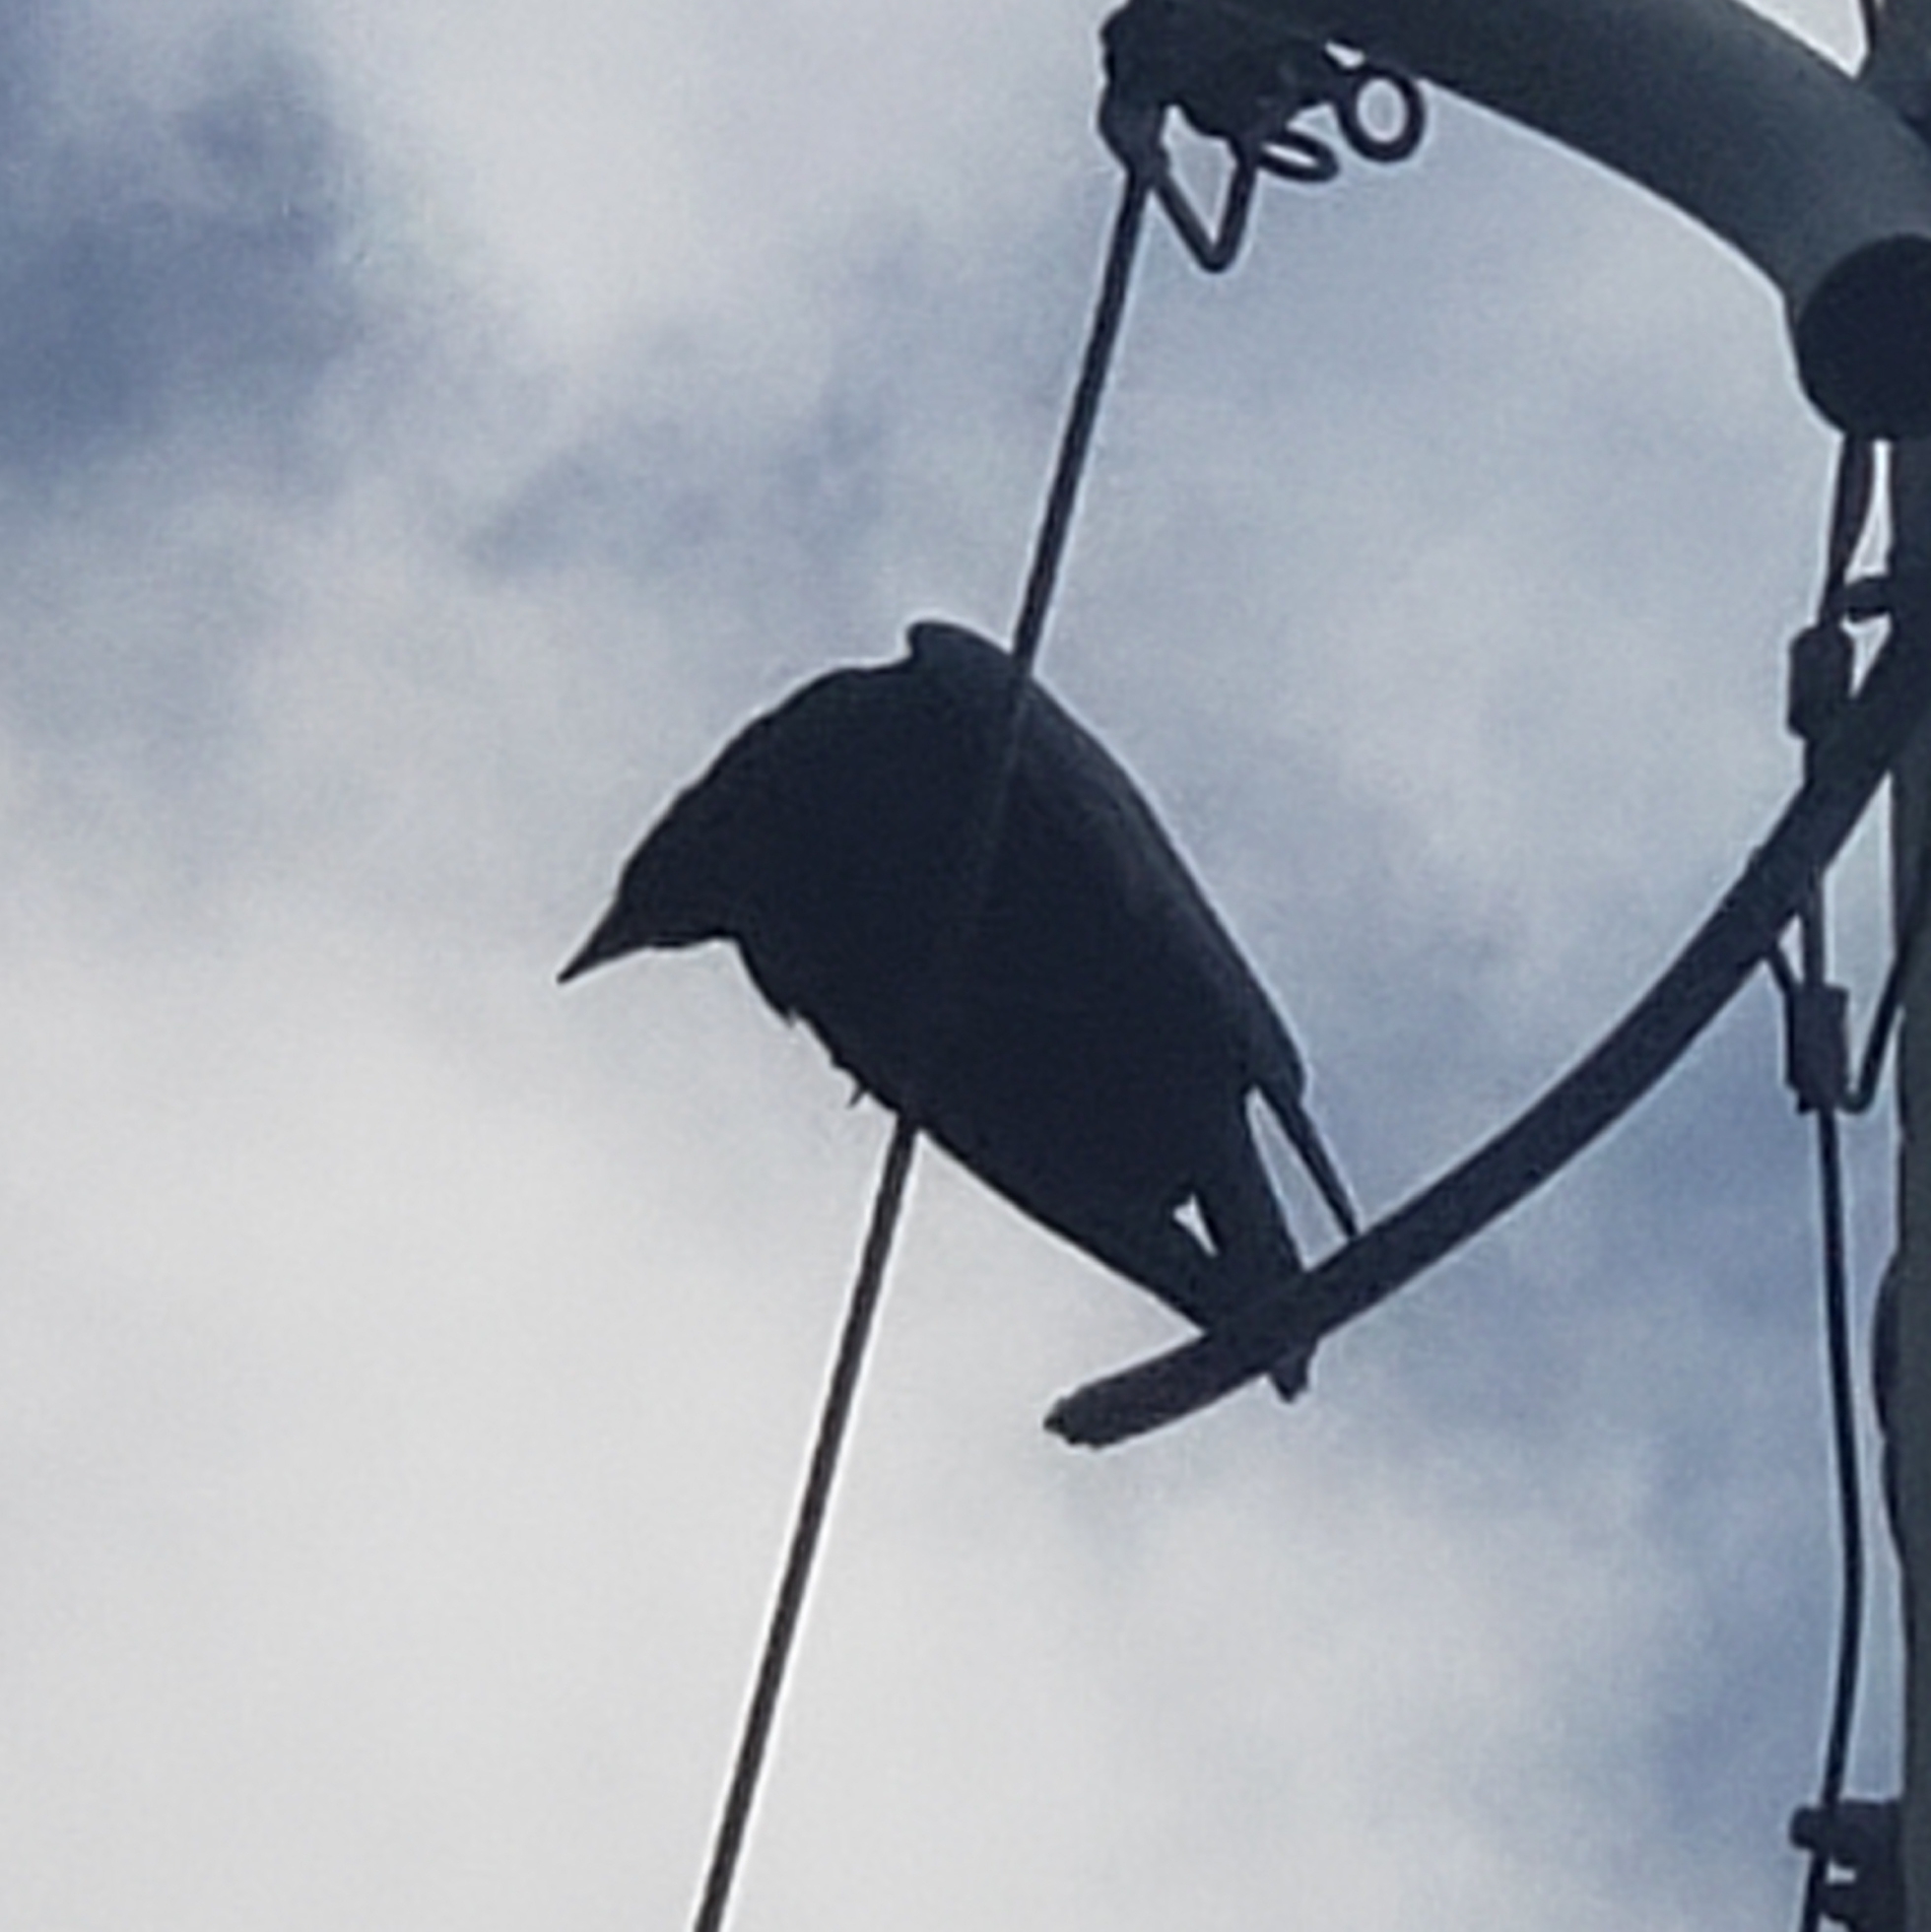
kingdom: Animalia
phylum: Chordata
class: Aves
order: Passeriformes
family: Corvidae
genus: Corvus
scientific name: Corvus
